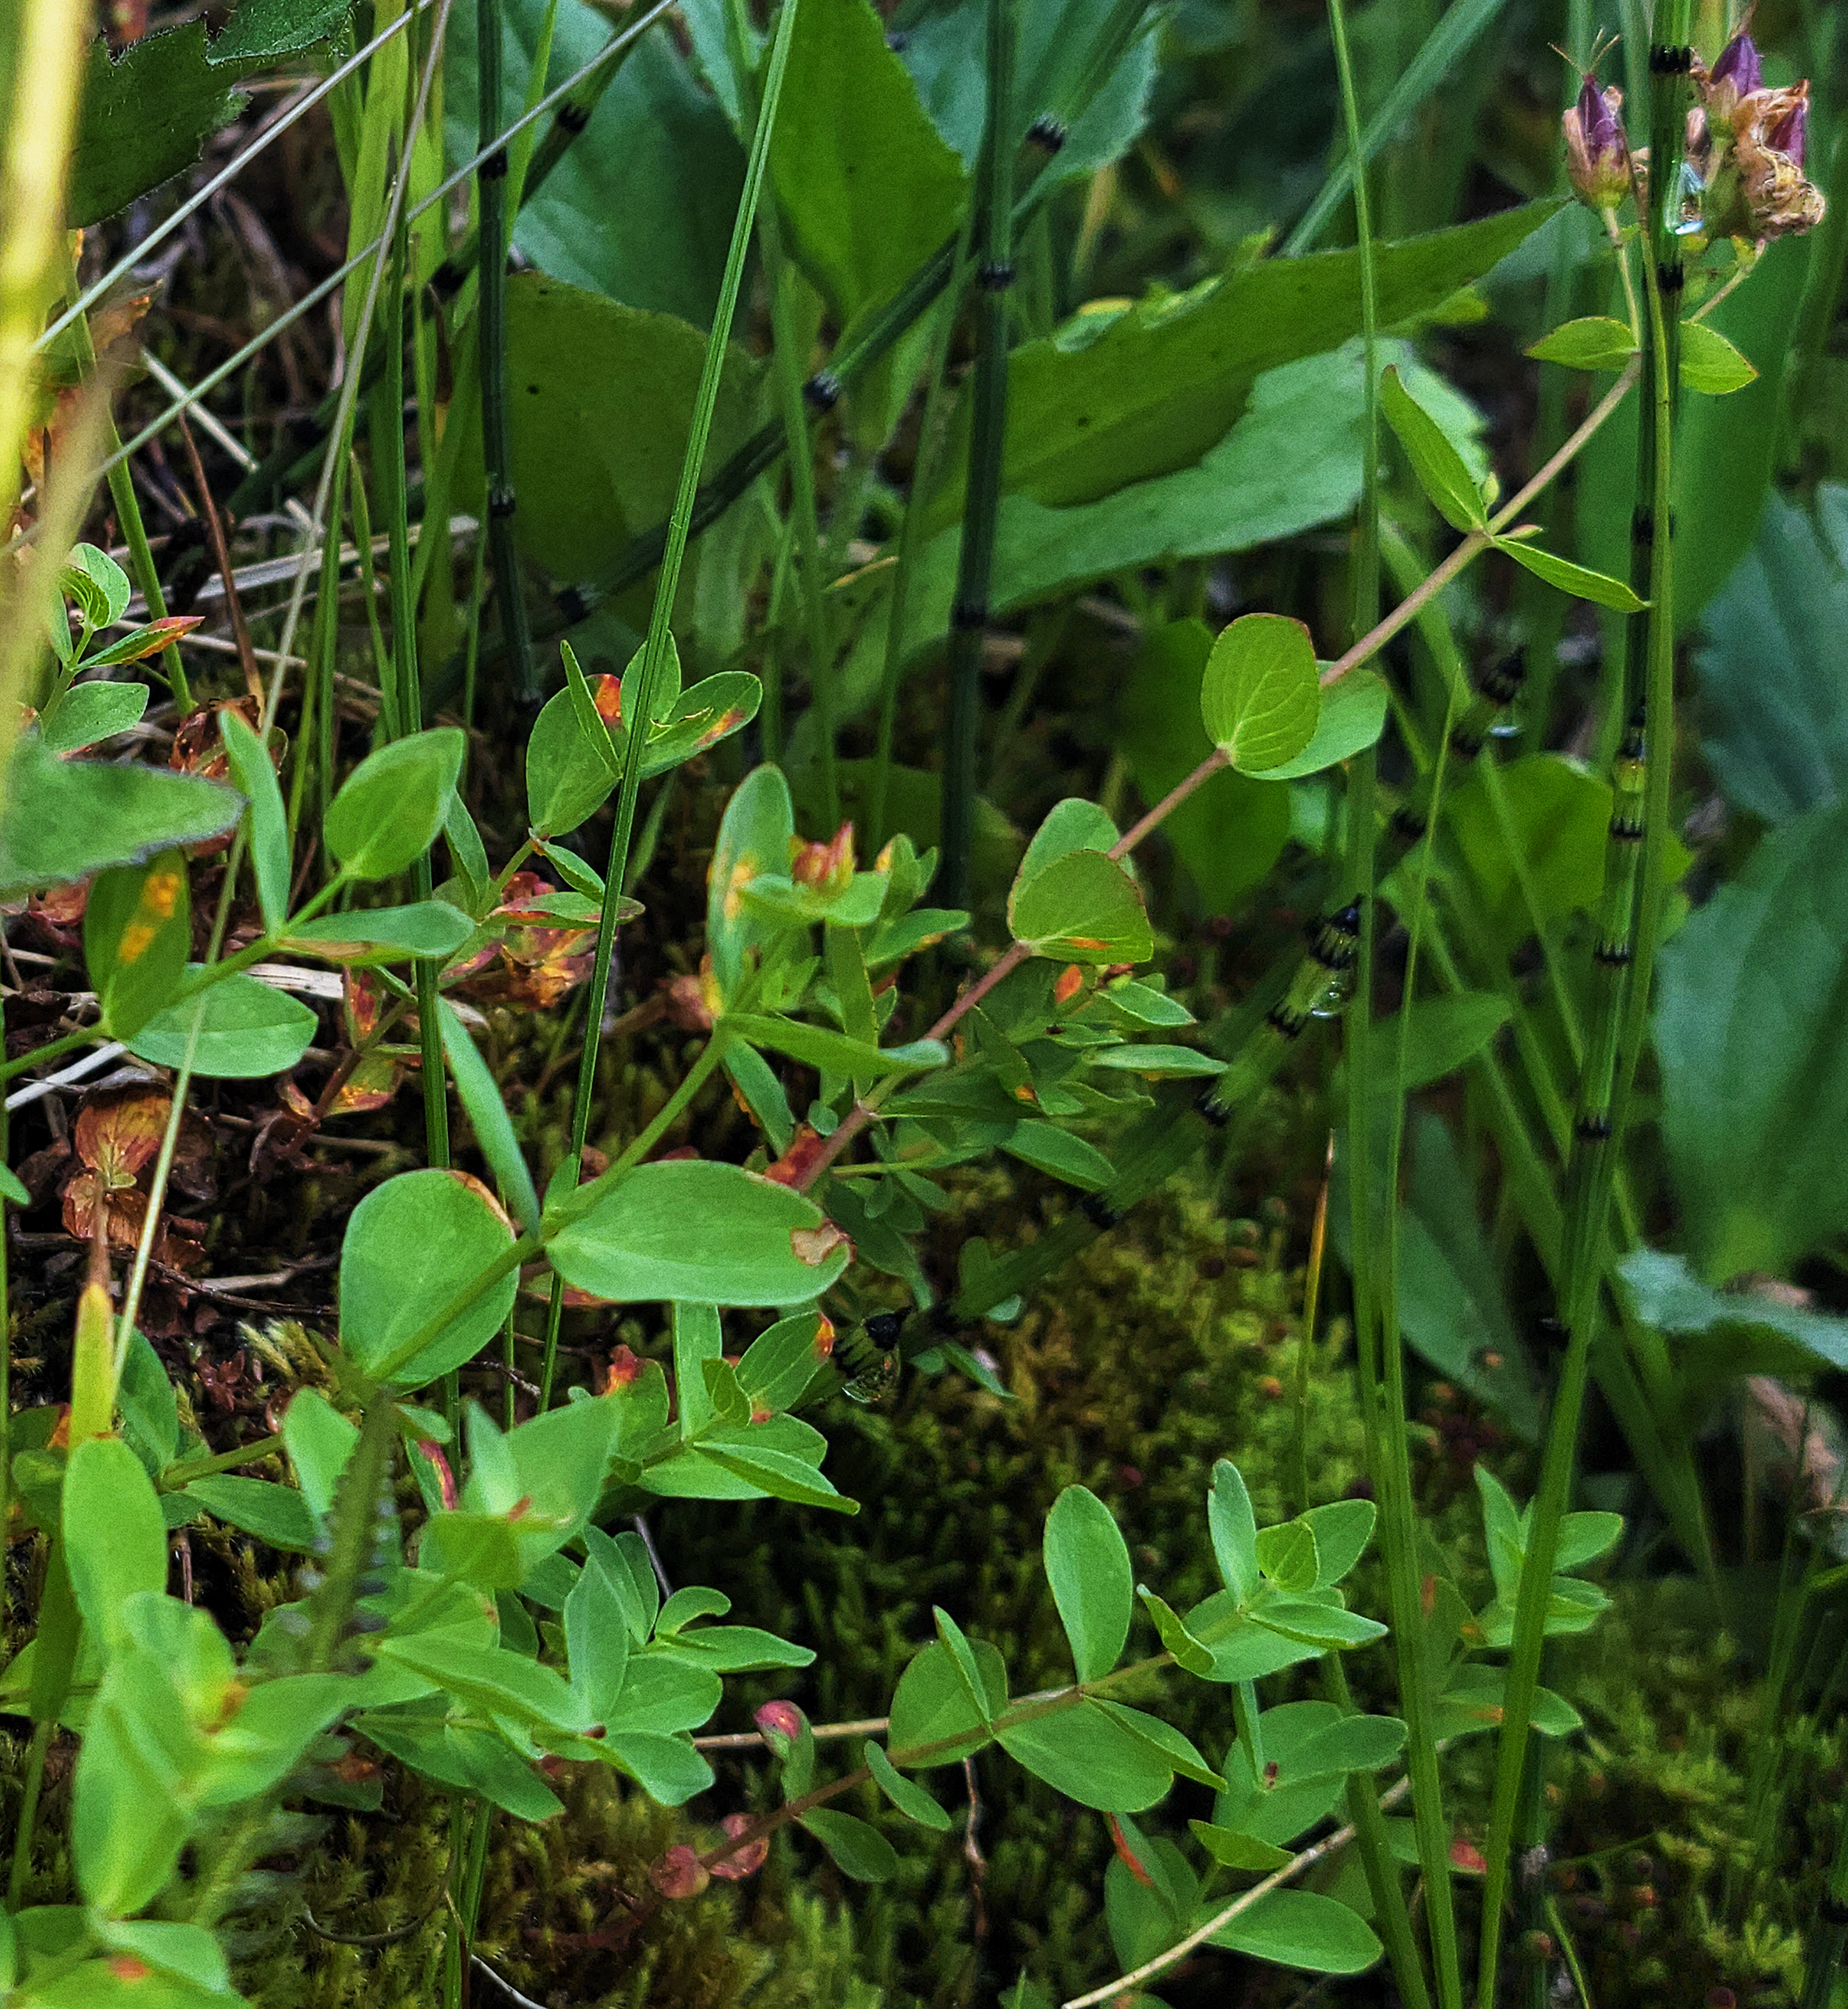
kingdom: Plantae
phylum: Tracheophyta
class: Magnoliopsida
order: Malpighiales
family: Hypericaceae
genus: Hypericum
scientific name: Hypericum scouleri
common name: Scouler's st. john's-wort
